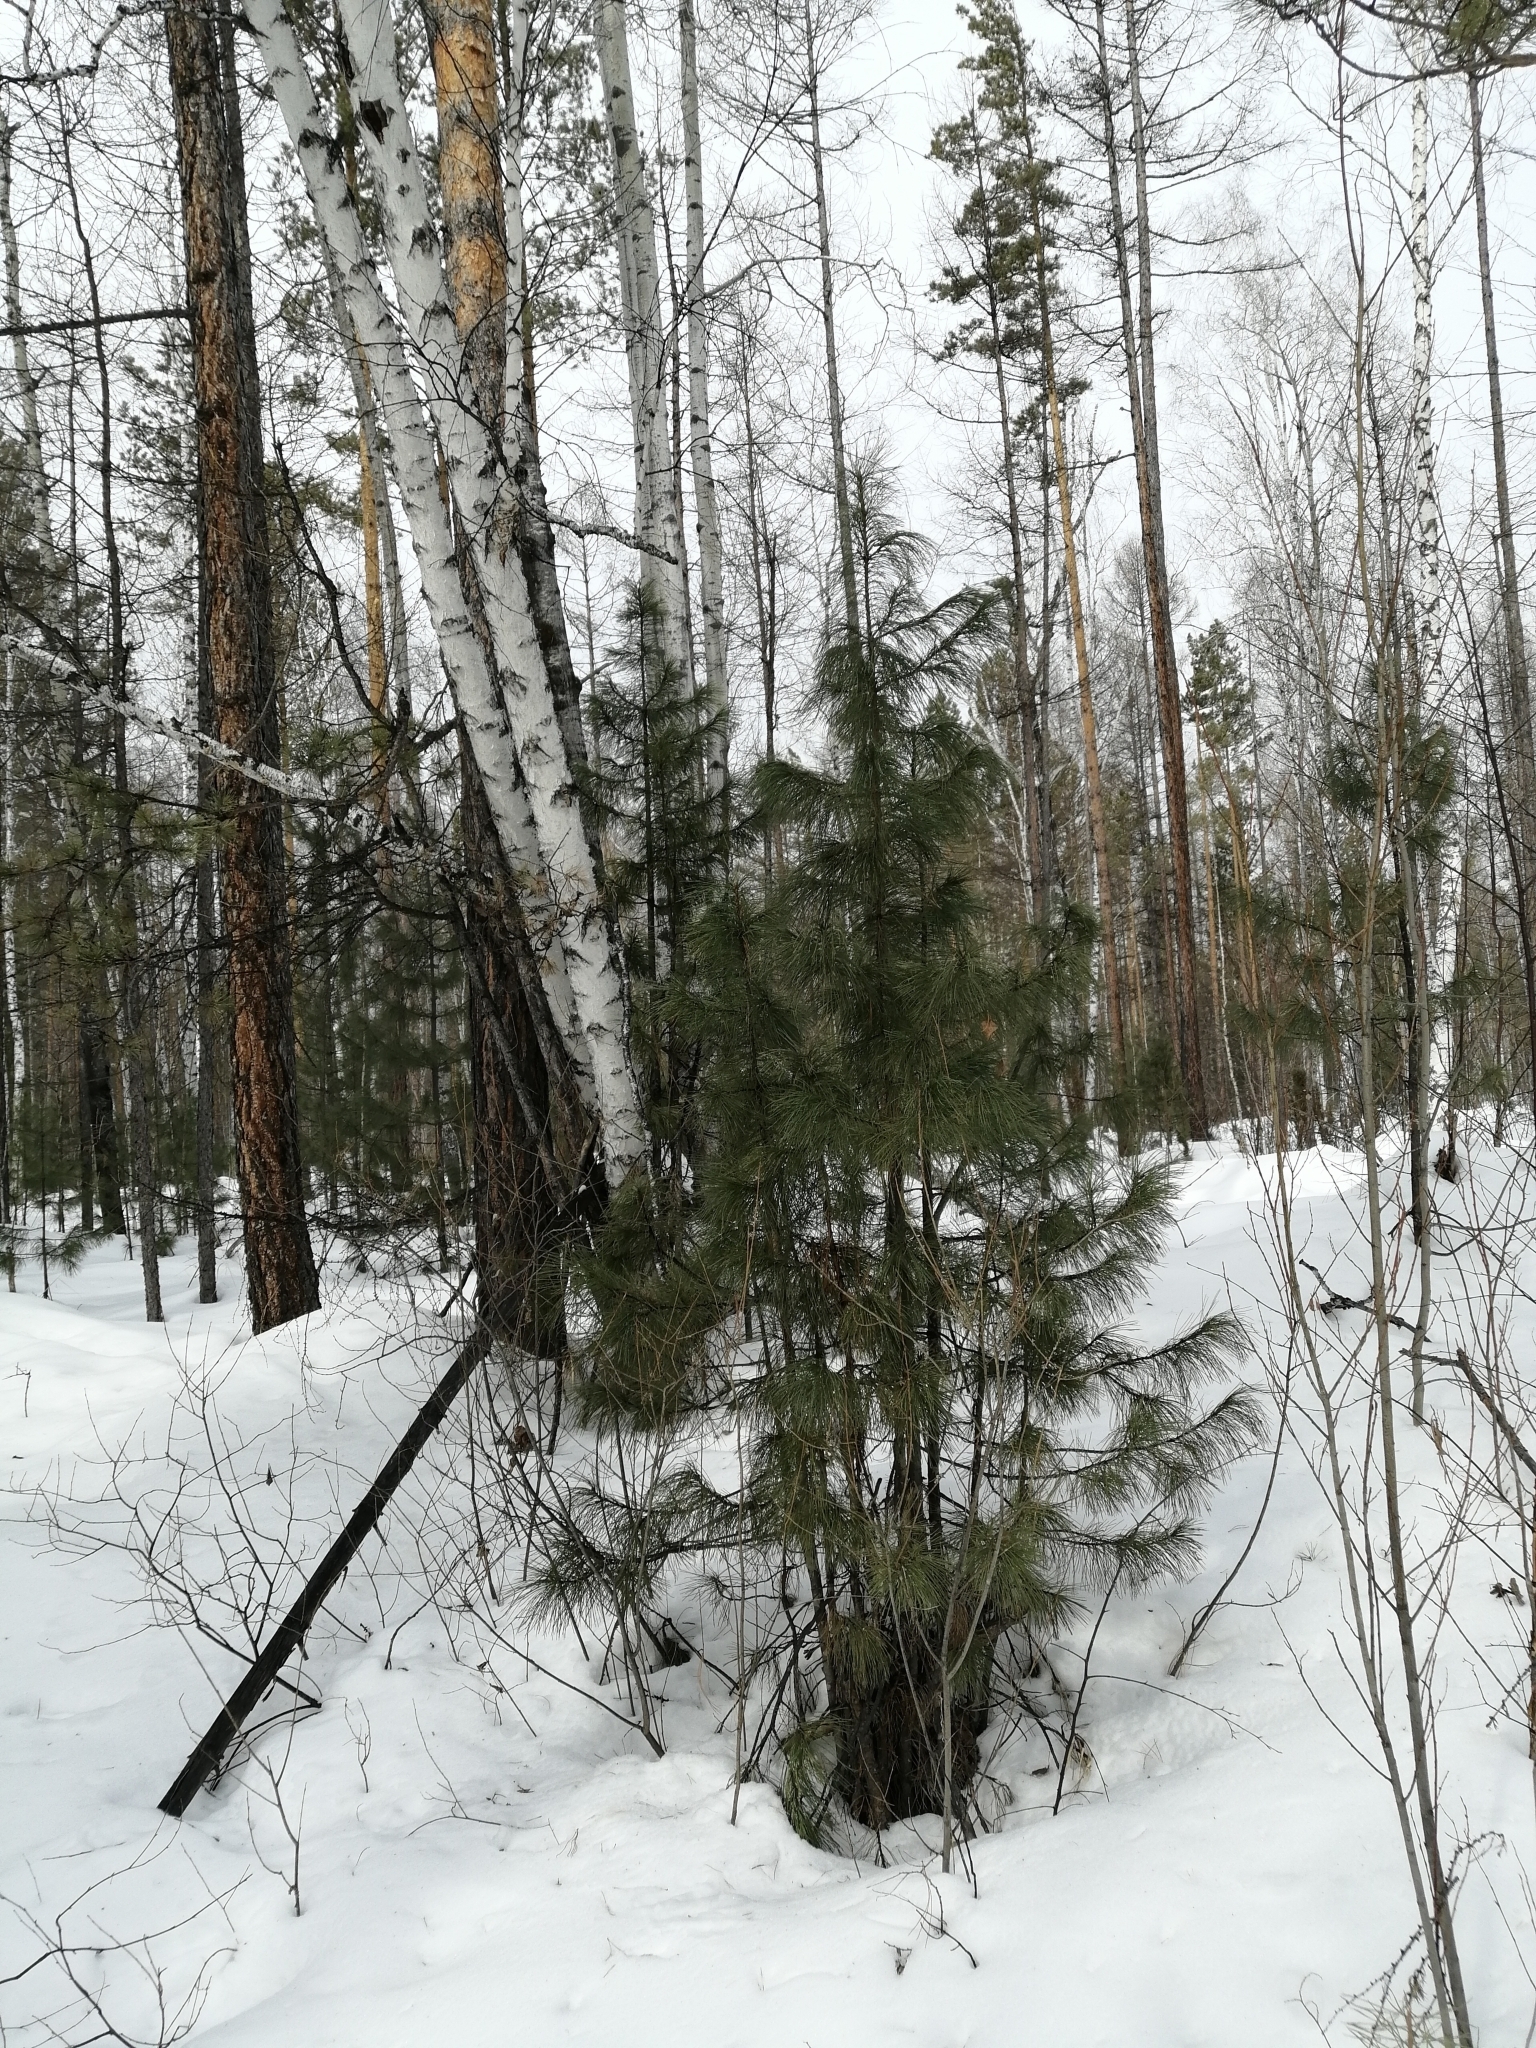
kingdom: Plantae
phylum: Tracheophyta
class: Pinopsida
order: Pinales
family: Pinaceae
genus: Pinus
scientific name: Pinus sibirica
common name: Siberian pine
